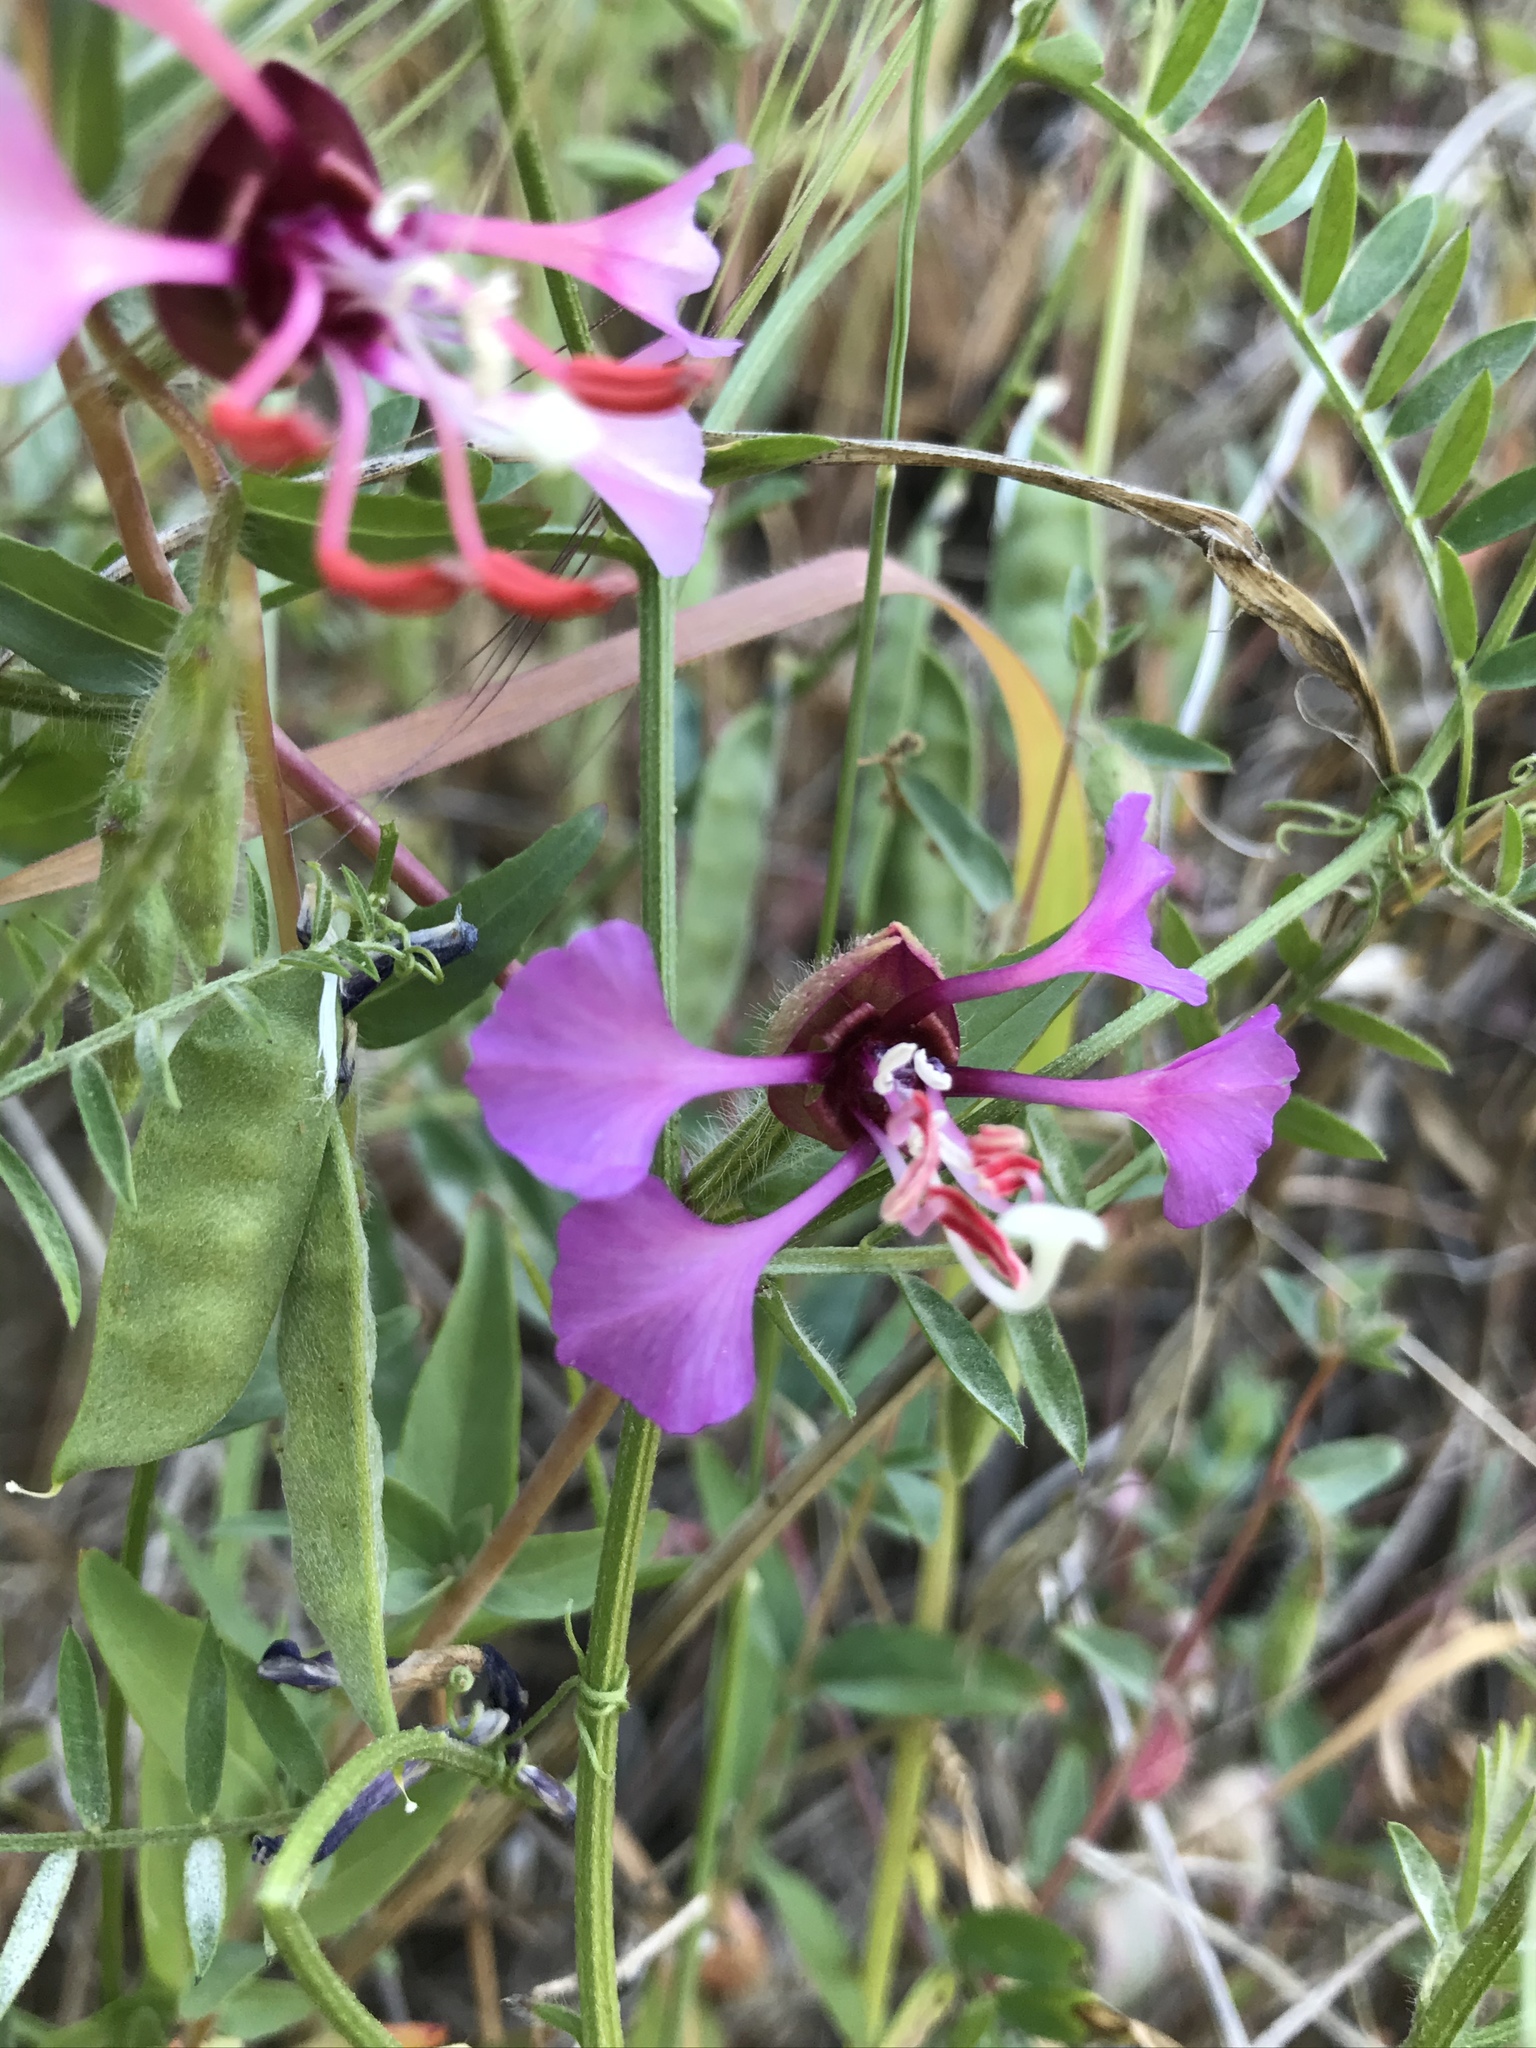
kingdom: Plantae
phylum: Tracheophyta
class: Magnoliopsida
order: Myrtales
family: Onagraceae
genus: Clarkia
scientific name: Clarkia unguiculata
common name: Clarkia
